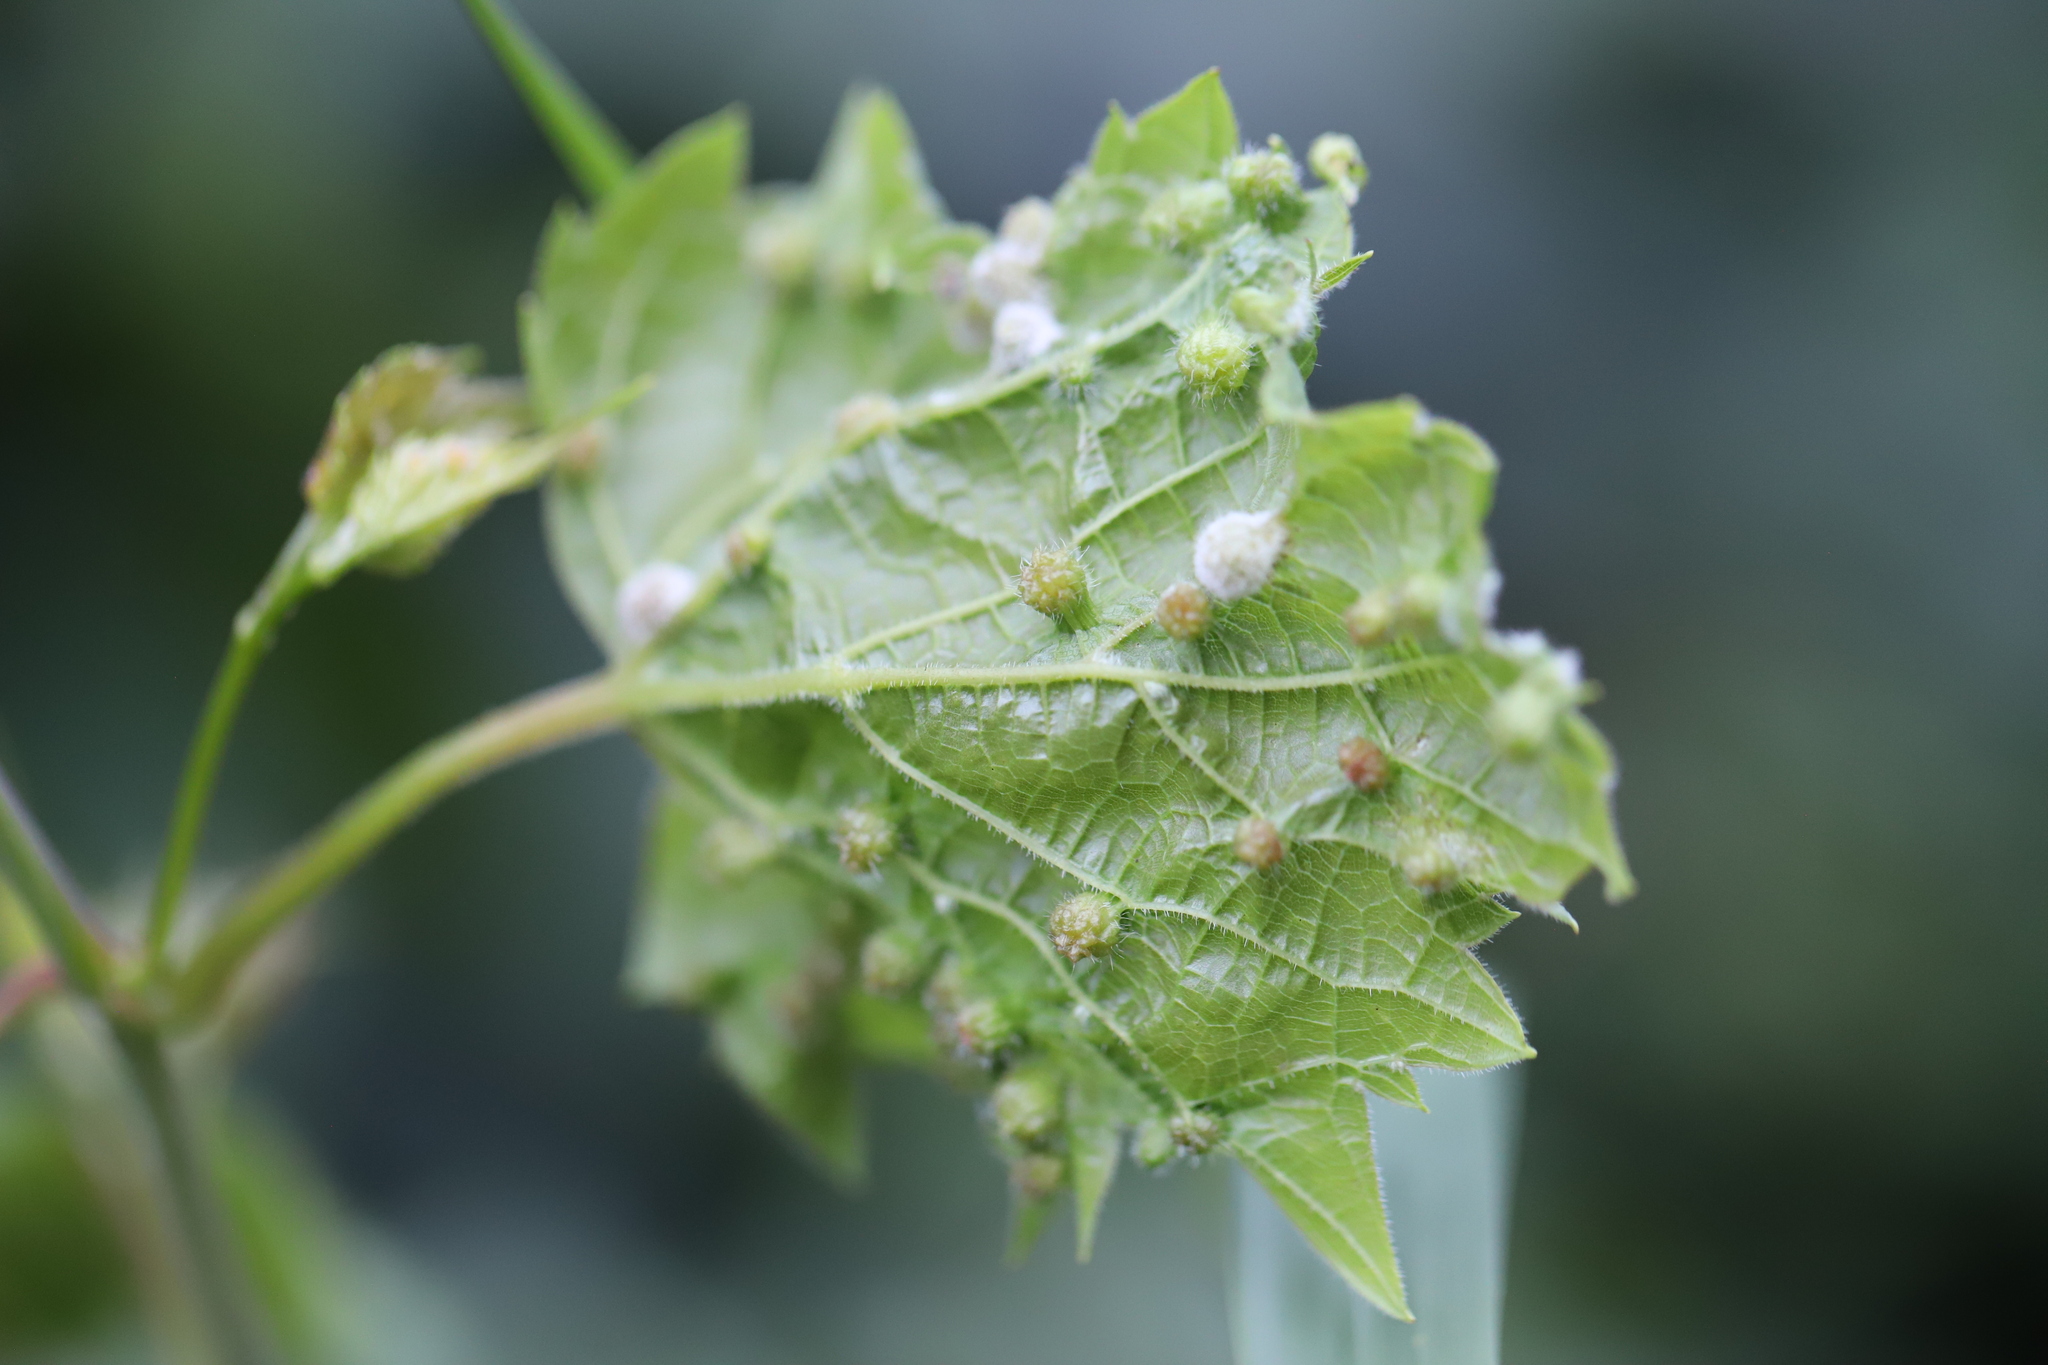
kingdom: Animalia
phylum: Arthropoda
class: Insecta
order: Hemiptera
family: Phylloxeridae
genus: Daktulosphaira
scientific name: Daktulosphaira vitifoliae
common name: Grape phylloxera
